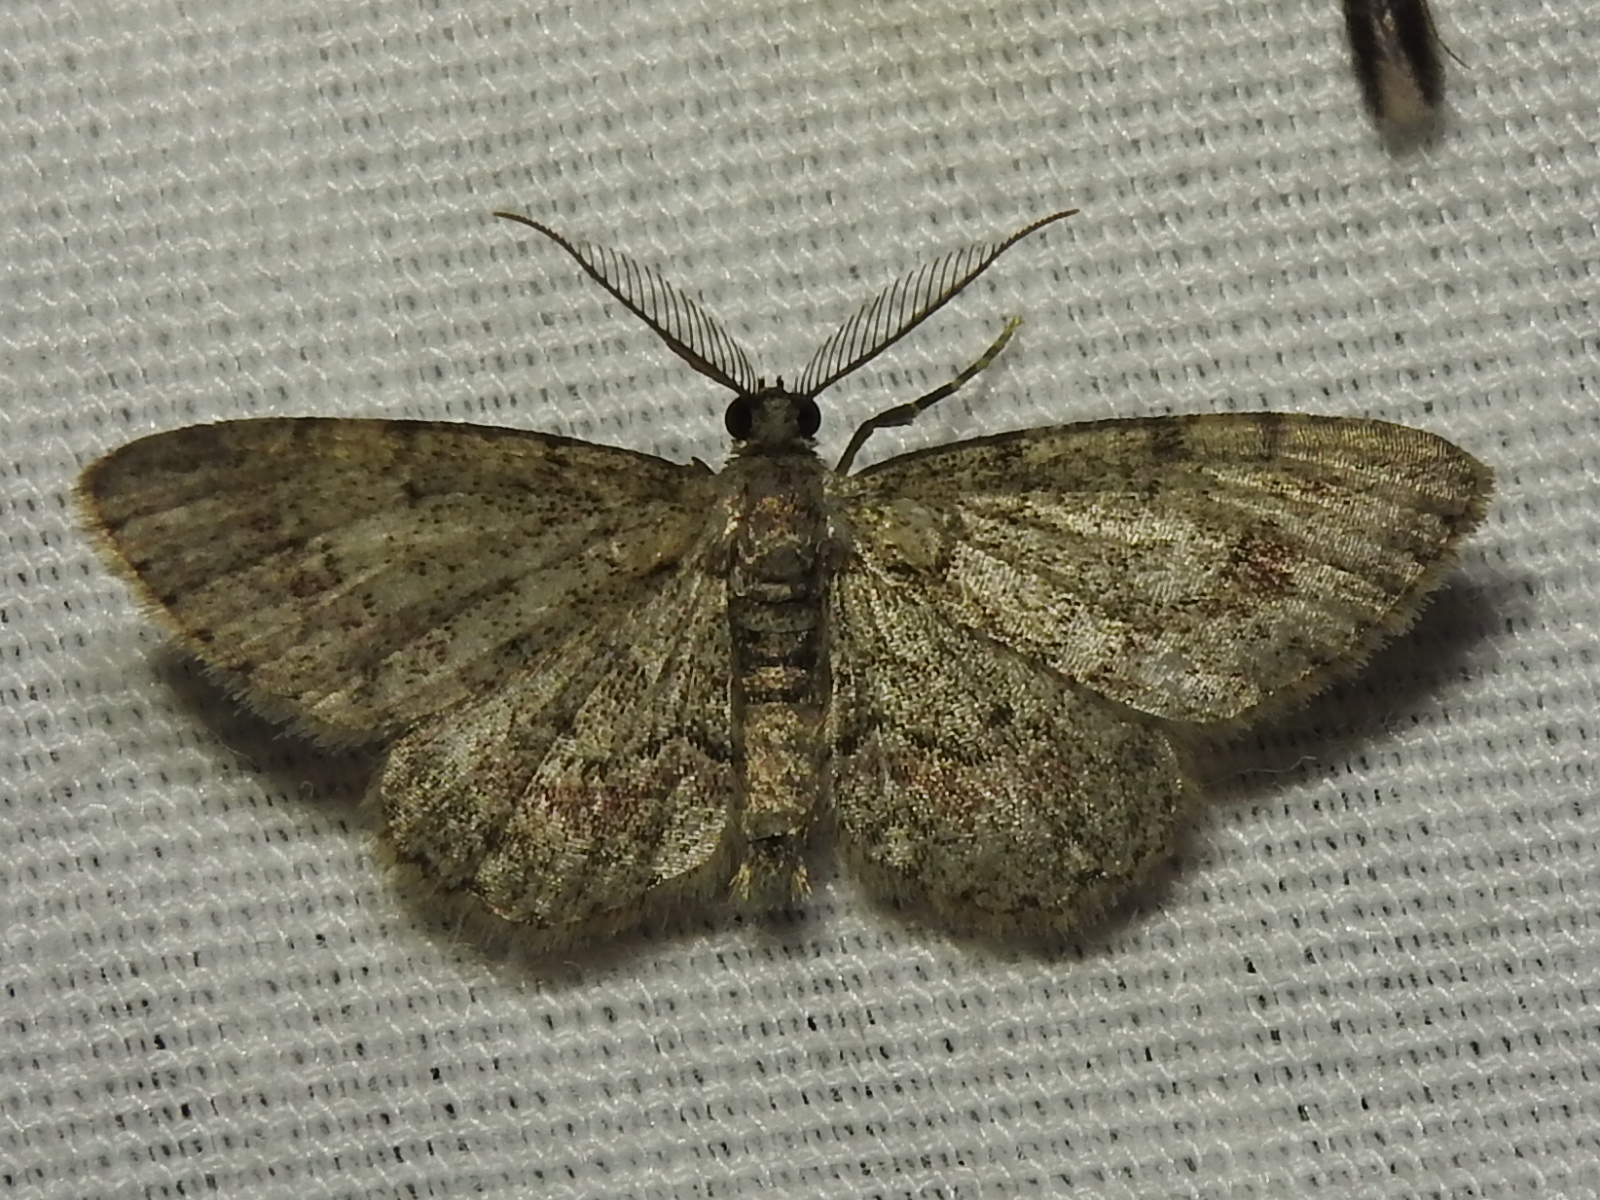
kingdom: Animalia
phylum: Arthropoda
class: Insecta
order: Lepidoptera
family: Geometridae
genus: Glenoides
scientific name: Glenoides texanaria
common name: Texas gray
